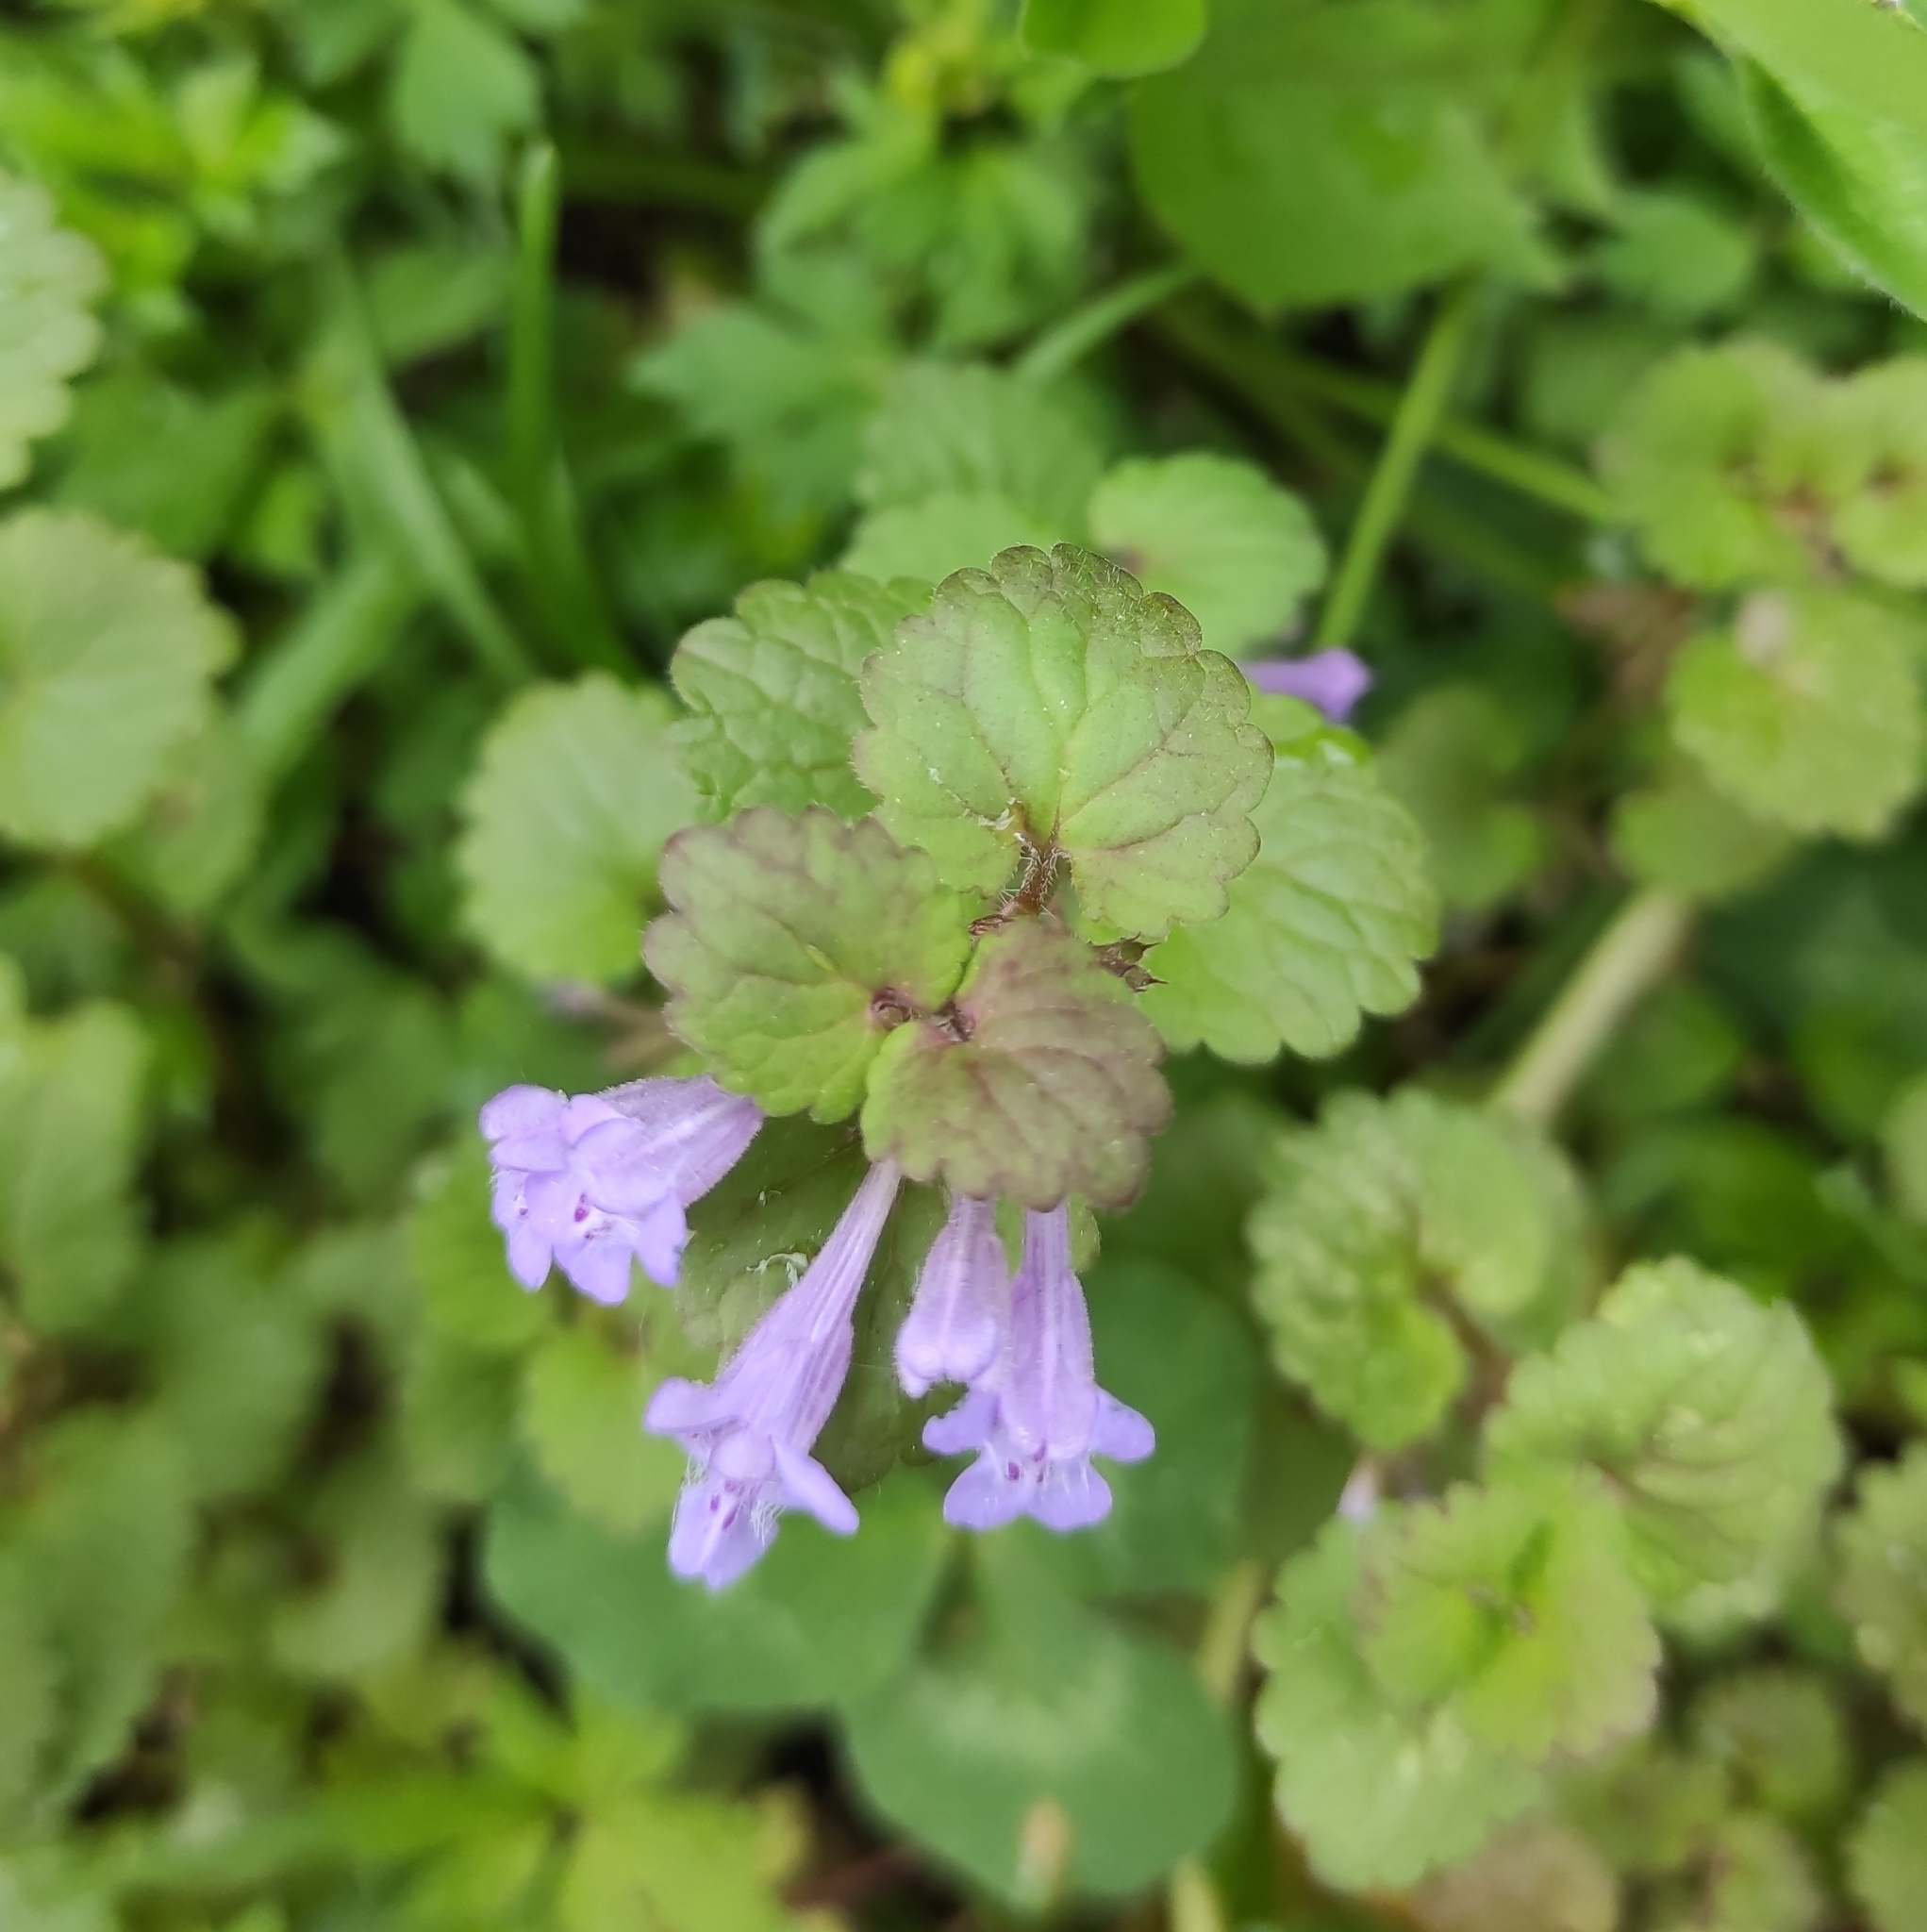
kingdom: Plantae
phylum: Tracheophyta
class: Magnoliopsida
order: Lamiales
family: Lamiaceae
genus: Glechoma
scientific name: Glechoma hederacea
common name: Ground ivy
